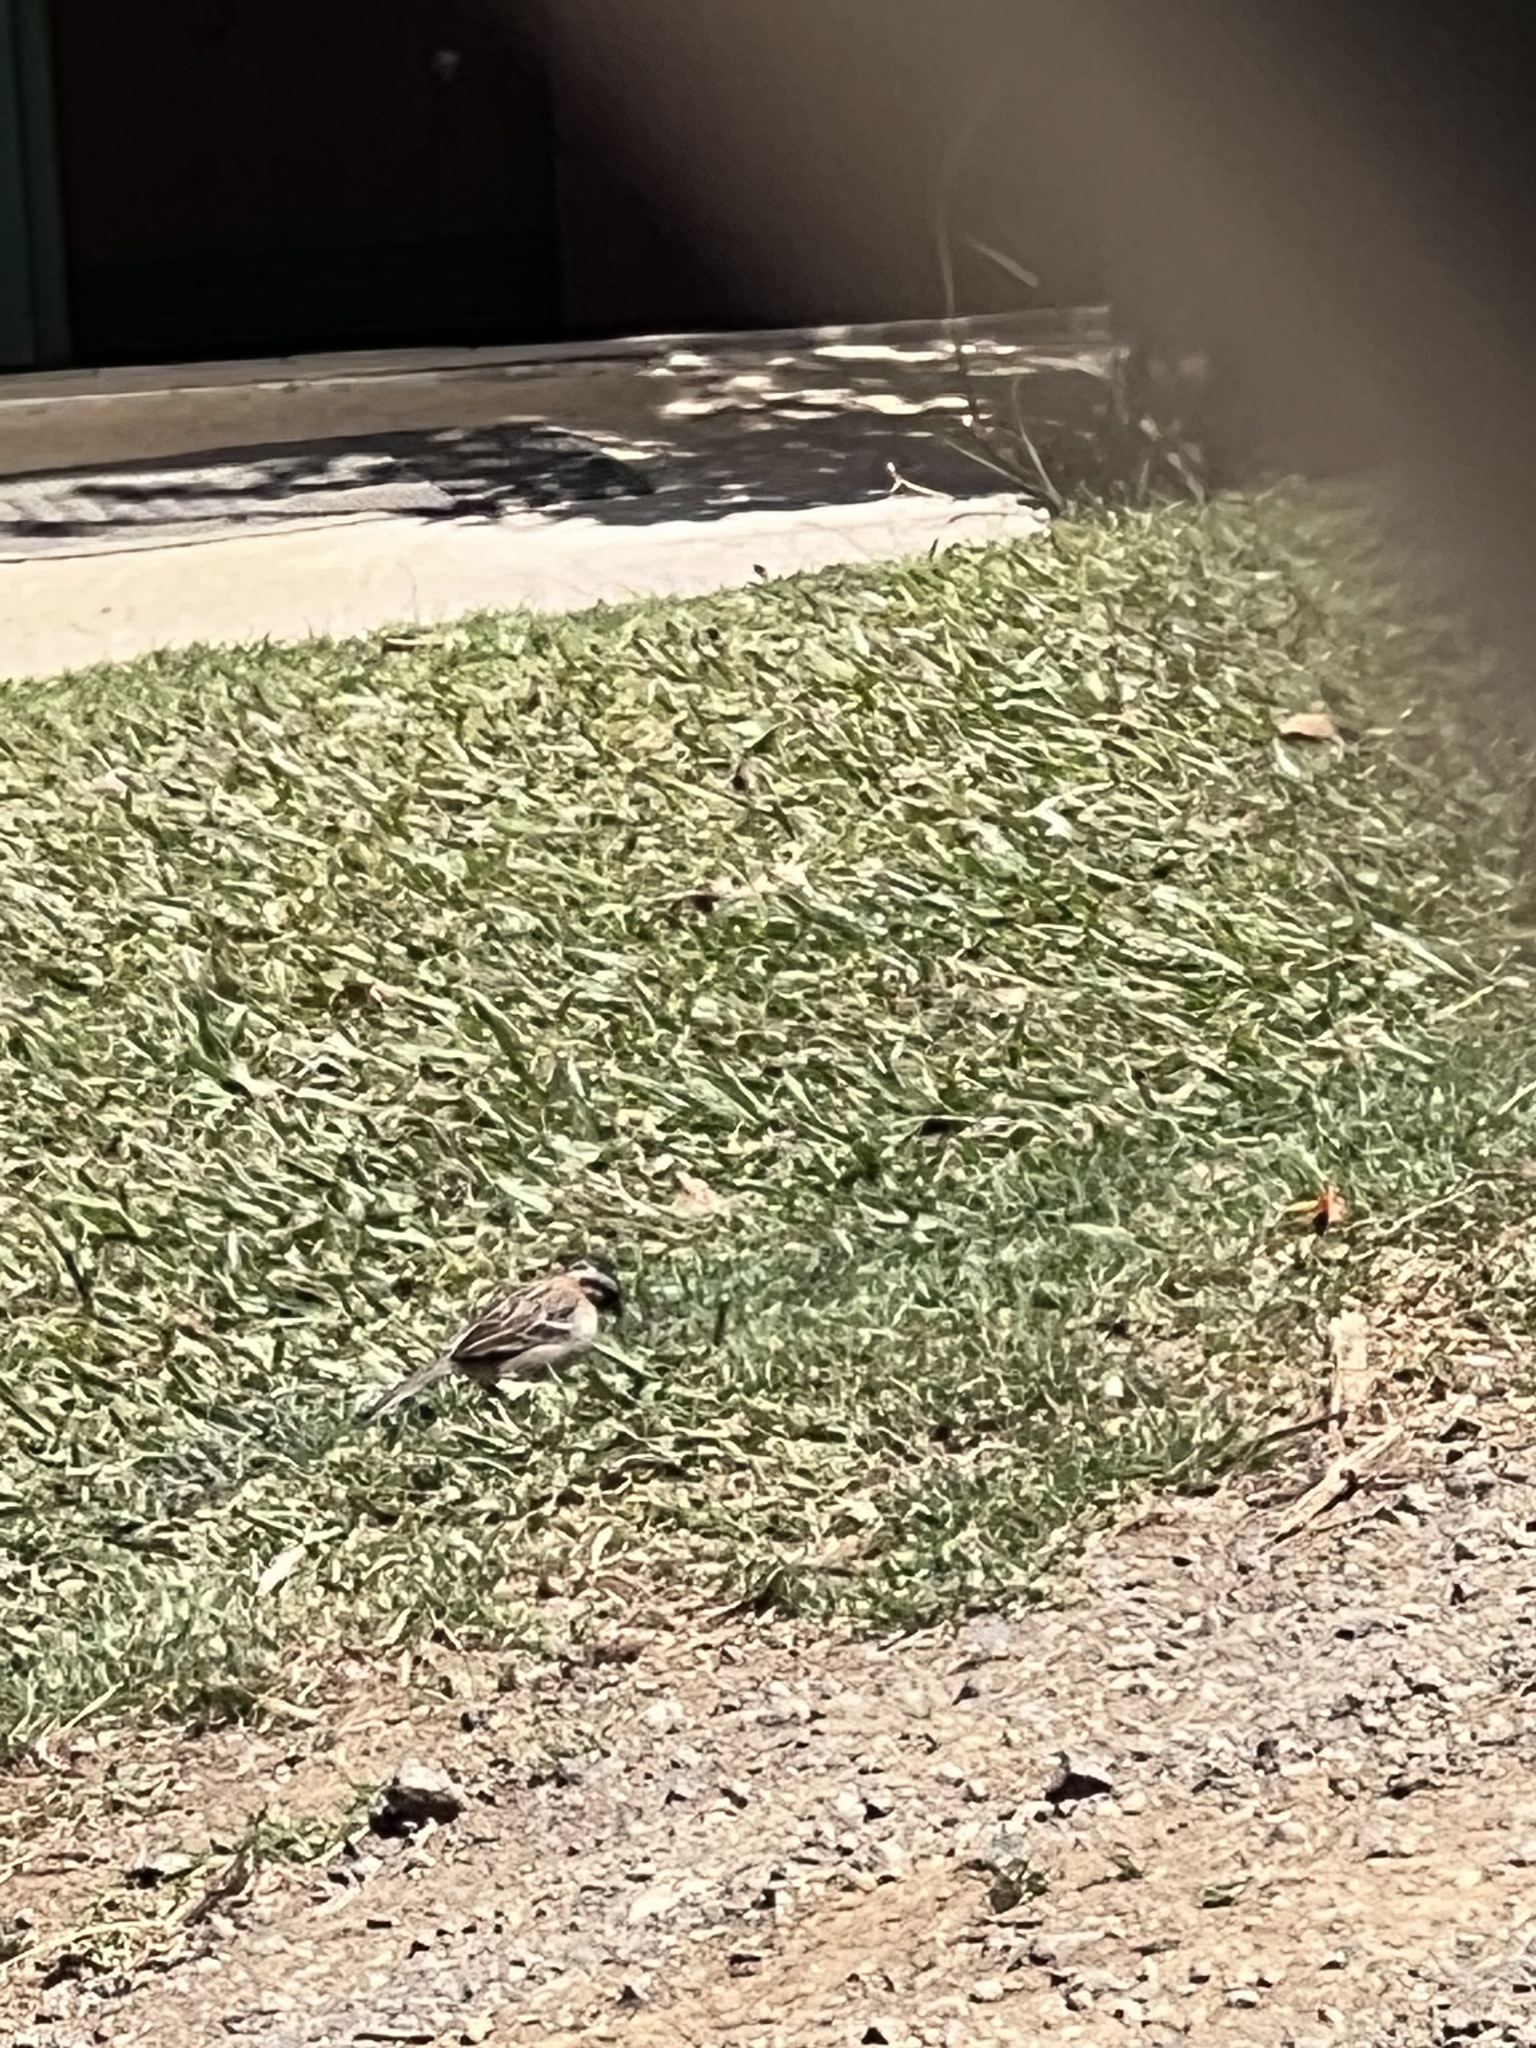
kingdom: Animalia
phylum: Chordata
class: Aves
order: Passeriformes
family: Passerellidae
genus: Zonotrichia
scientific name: Zonotrichia capensis
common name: Rufous-collared sparrow
